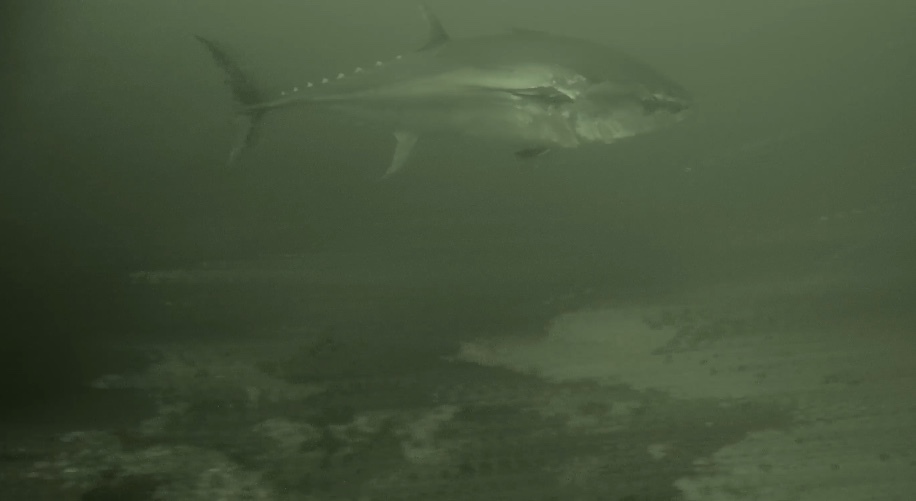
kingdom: Animalia
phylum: Chordata
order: Perciformes
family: Scombridae
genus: Thunnus
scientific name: Thunnus thynnus
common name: Bluefin tuna
